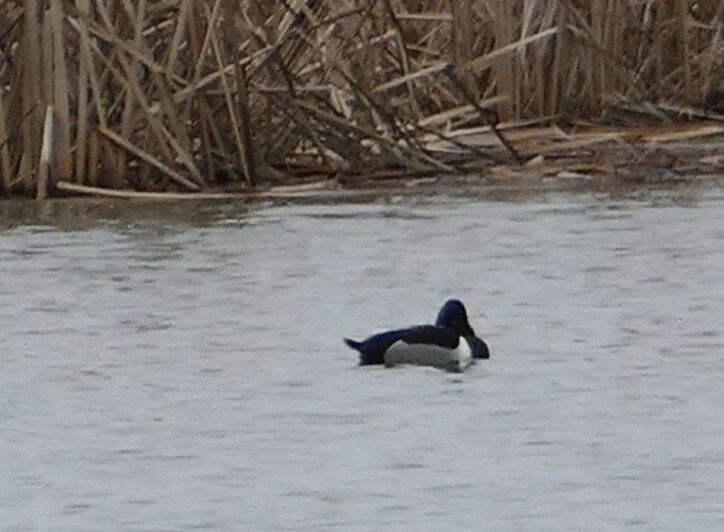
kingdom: Animalia
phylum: Chordata
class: Aves
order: Anseriformes
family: Anatidae
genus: Aythya
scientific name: Aythya collaris
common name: Ring-necked duck
